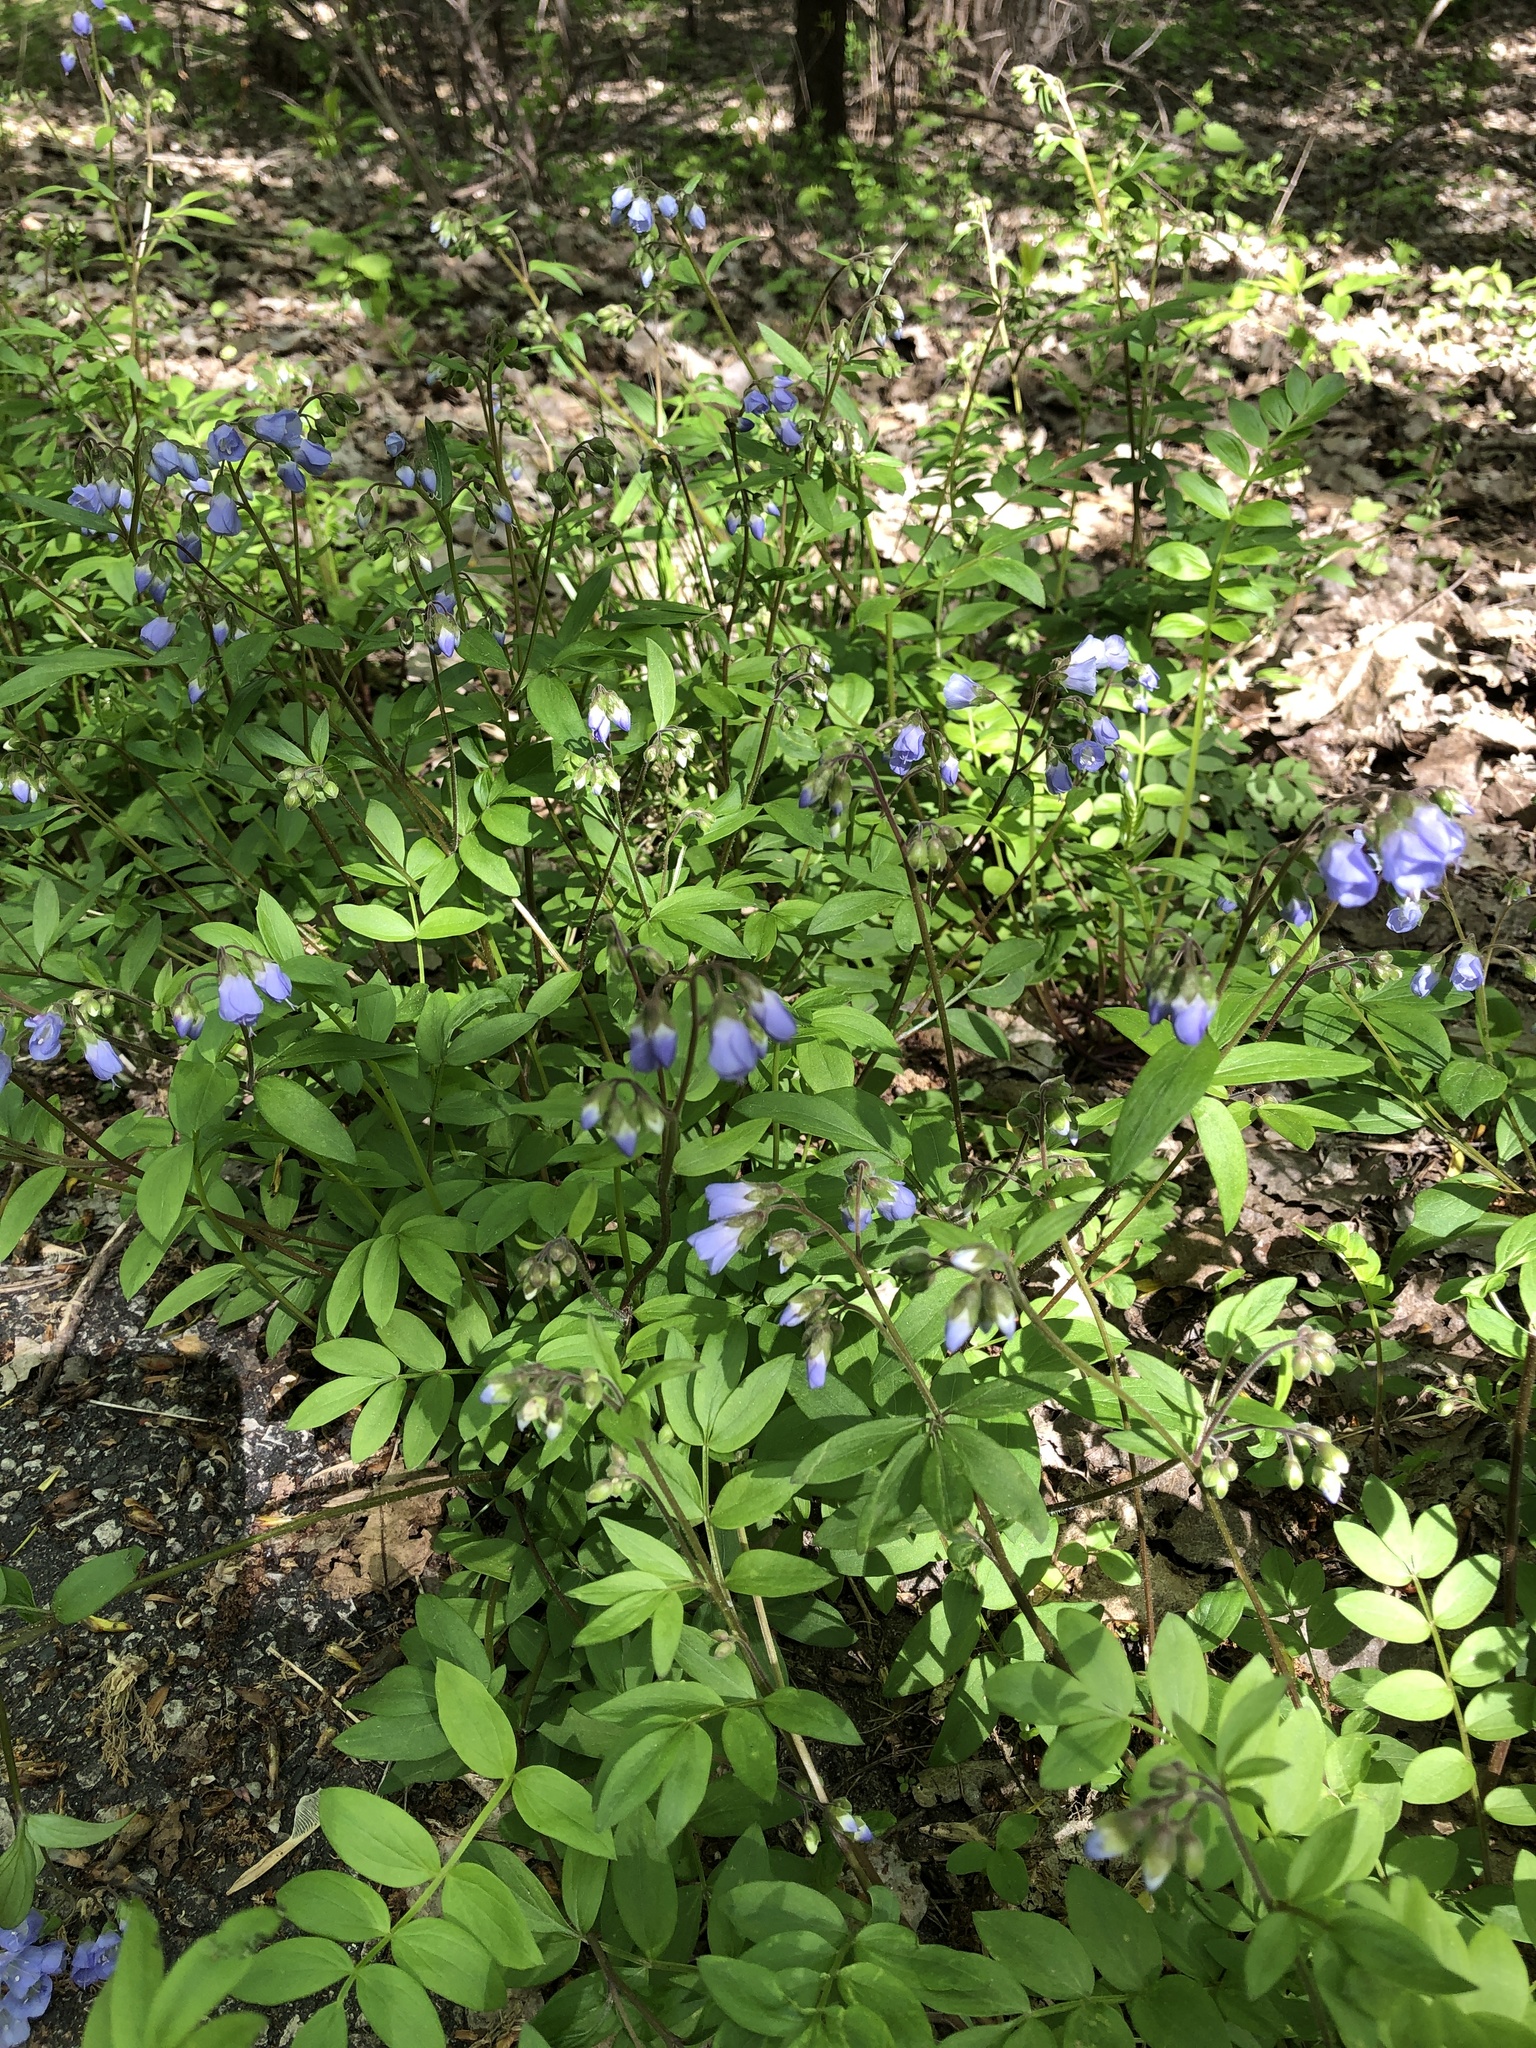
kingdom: Plantae
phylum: Tracheophyta
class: Magnoliopsida
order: Ericales
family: Polemoniaceae
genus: Polemonium
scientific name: Polemonium reptans
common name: Creeping jacob's-ladder
